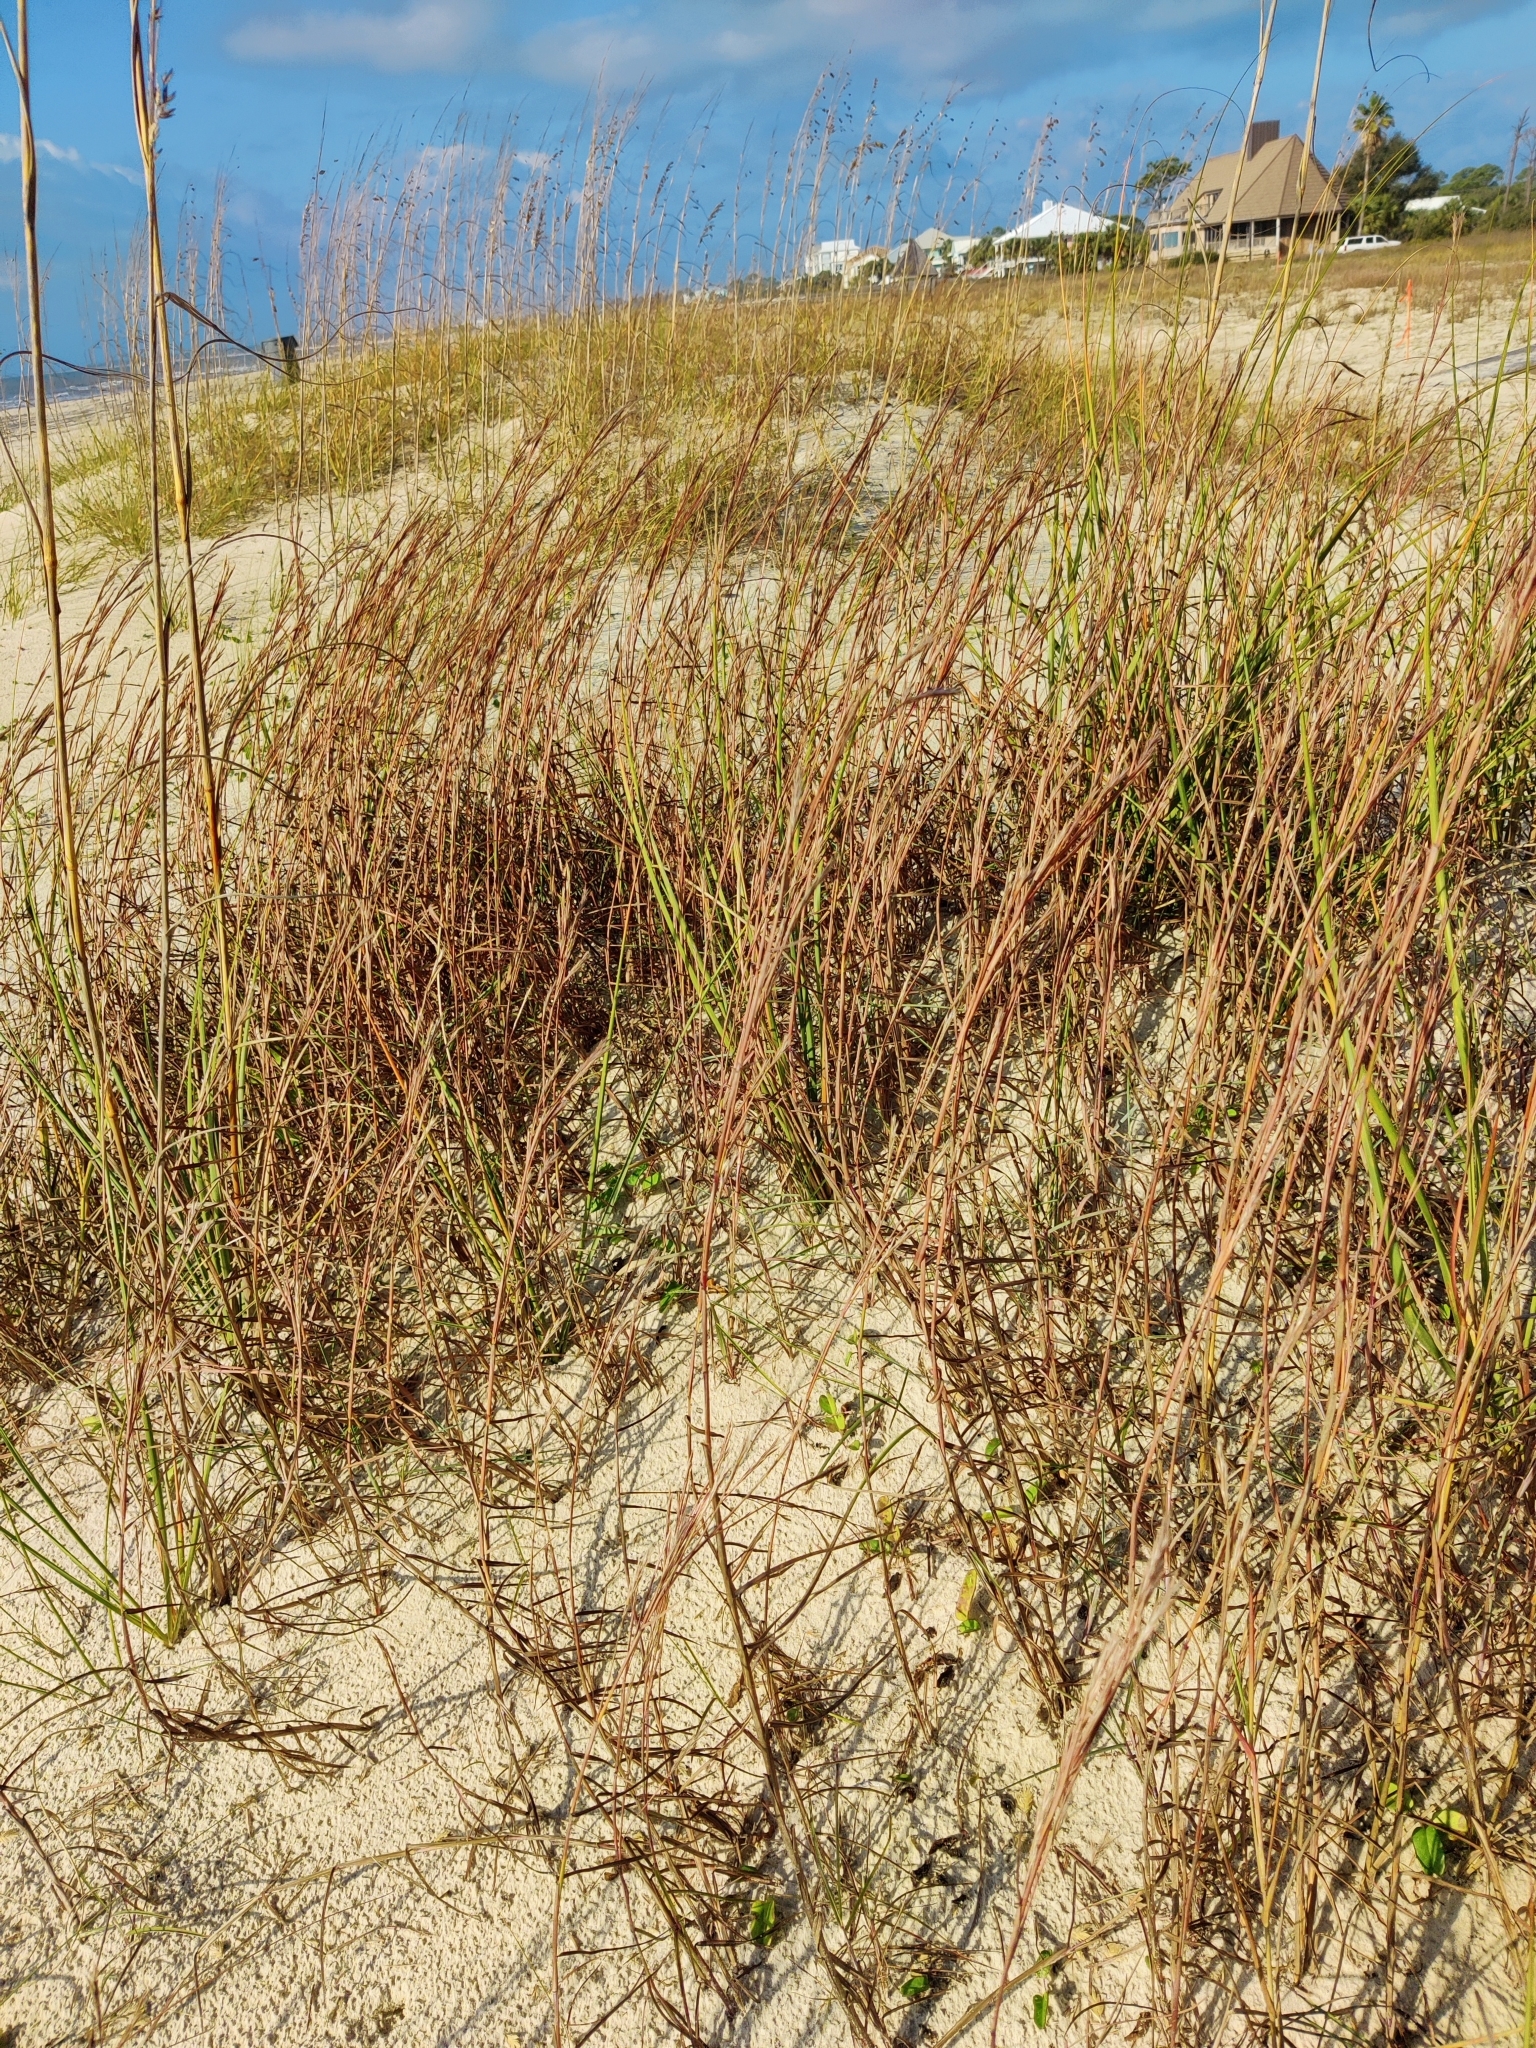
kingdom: Plantae
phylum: Tracheophyta
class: Liliopsida
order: Poales
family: Poaceae
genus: Schizachyrium
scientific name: Schizachyrium maritimum
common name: Gulf bluestem
